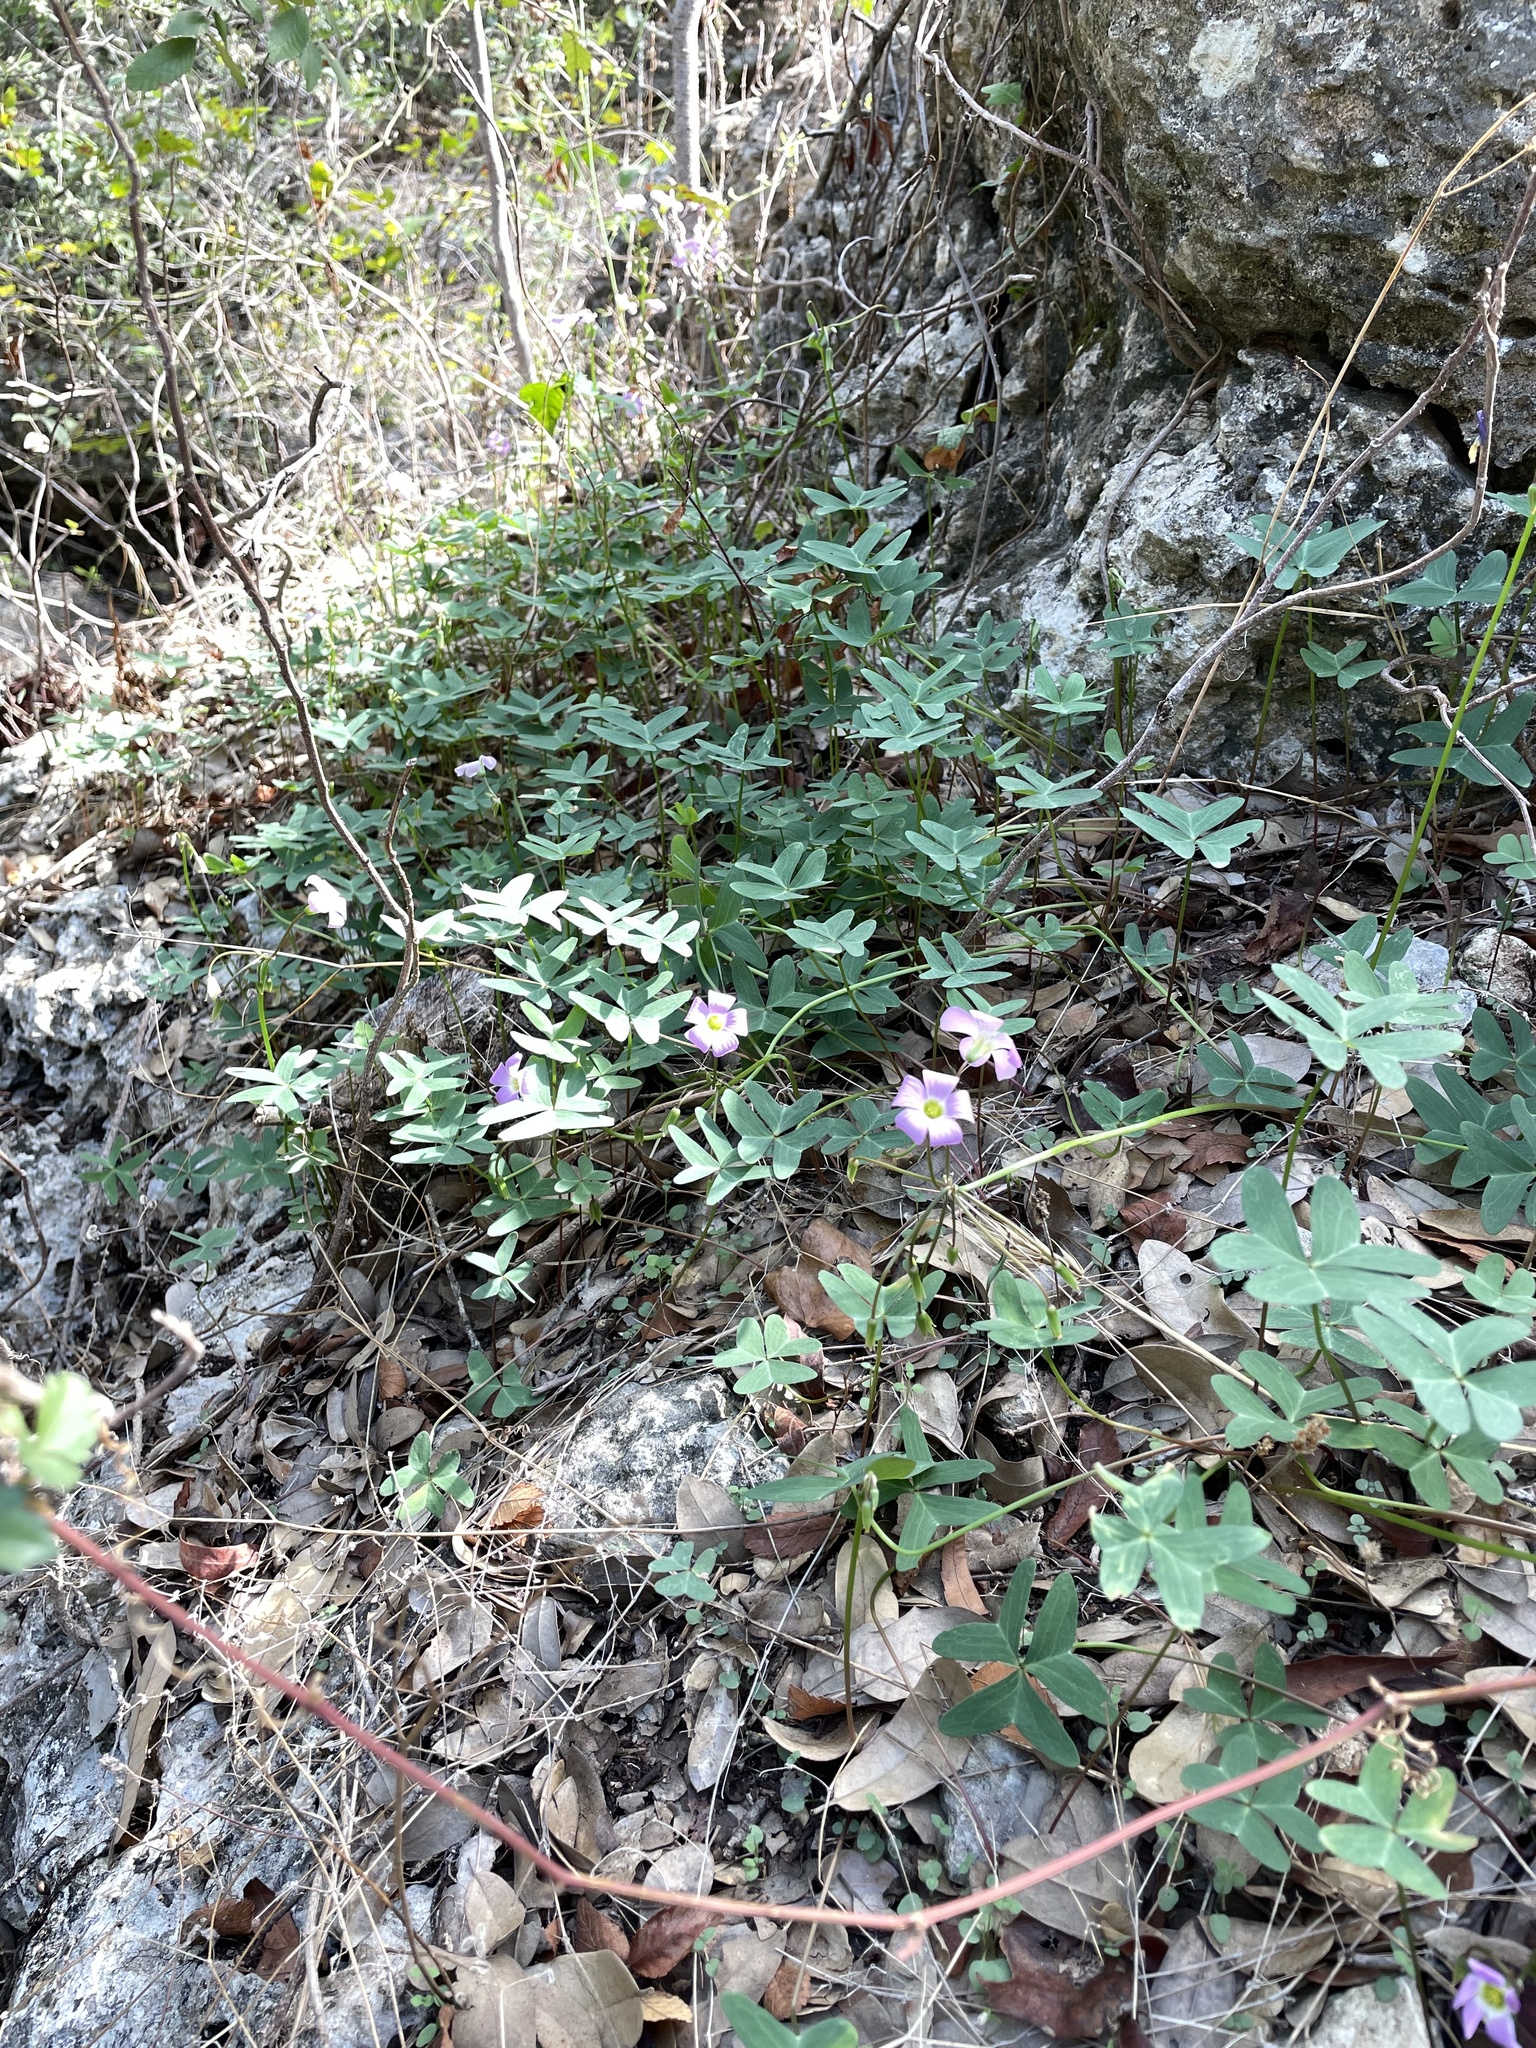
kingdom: Plantae
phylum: Tracheophyta
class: Magnoliopsida
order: Oxalidales
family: Oxalidaceae
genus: Oxalis
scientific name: Oxalis drummondii
